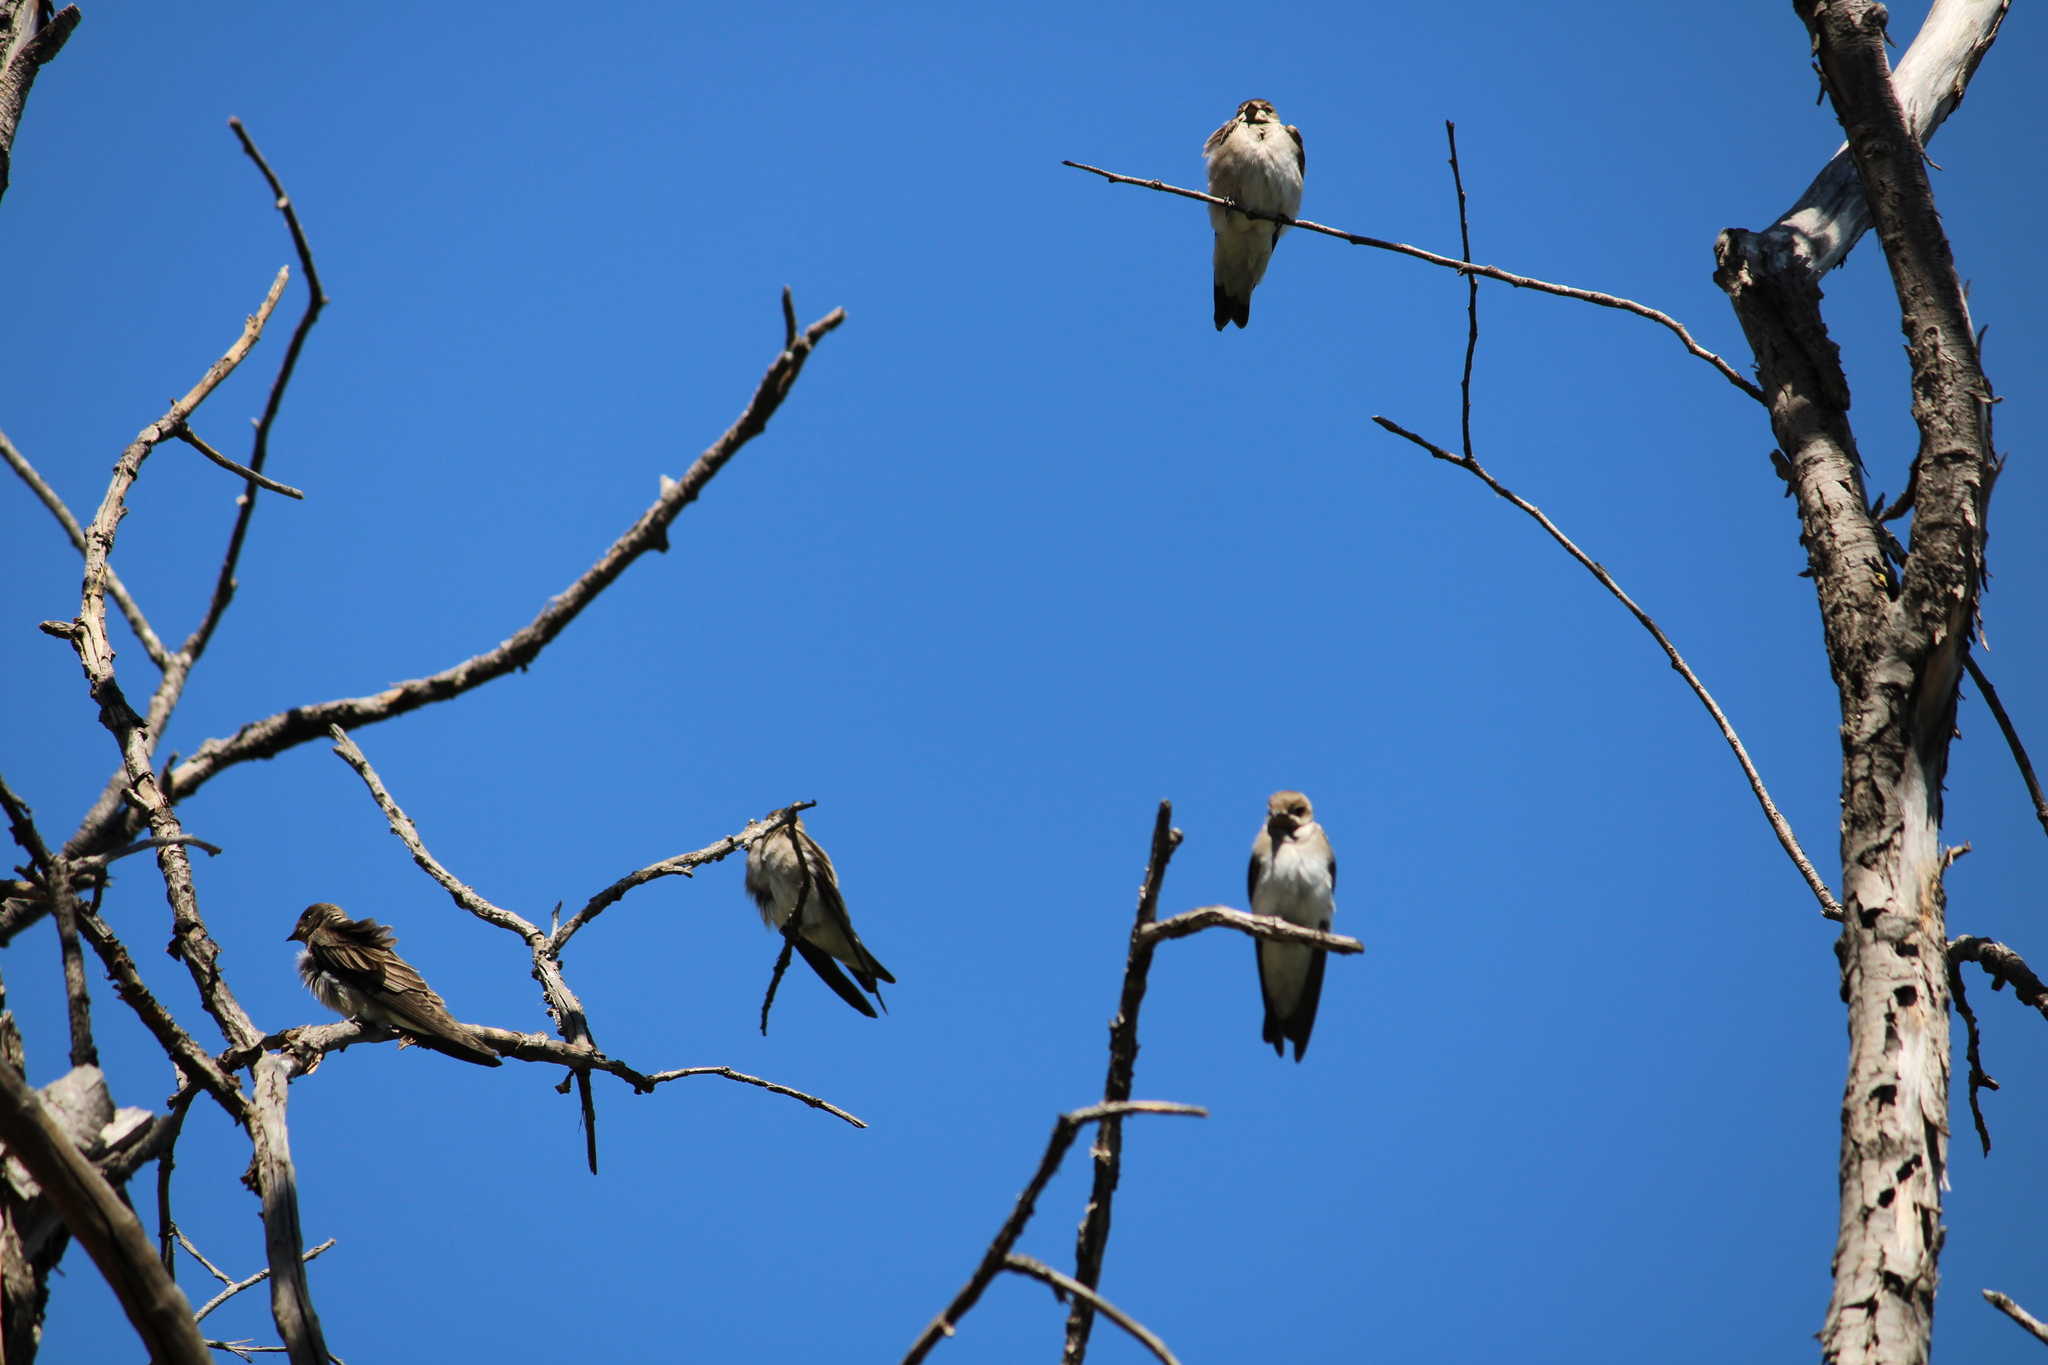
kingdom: Animalia
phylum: Chordata
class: Aves
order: Passeriformes
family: Hirundinidae
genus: Stelgidopteryx
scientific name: Stelgidopteryx serripennis
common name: Northern rough-winged swallow
